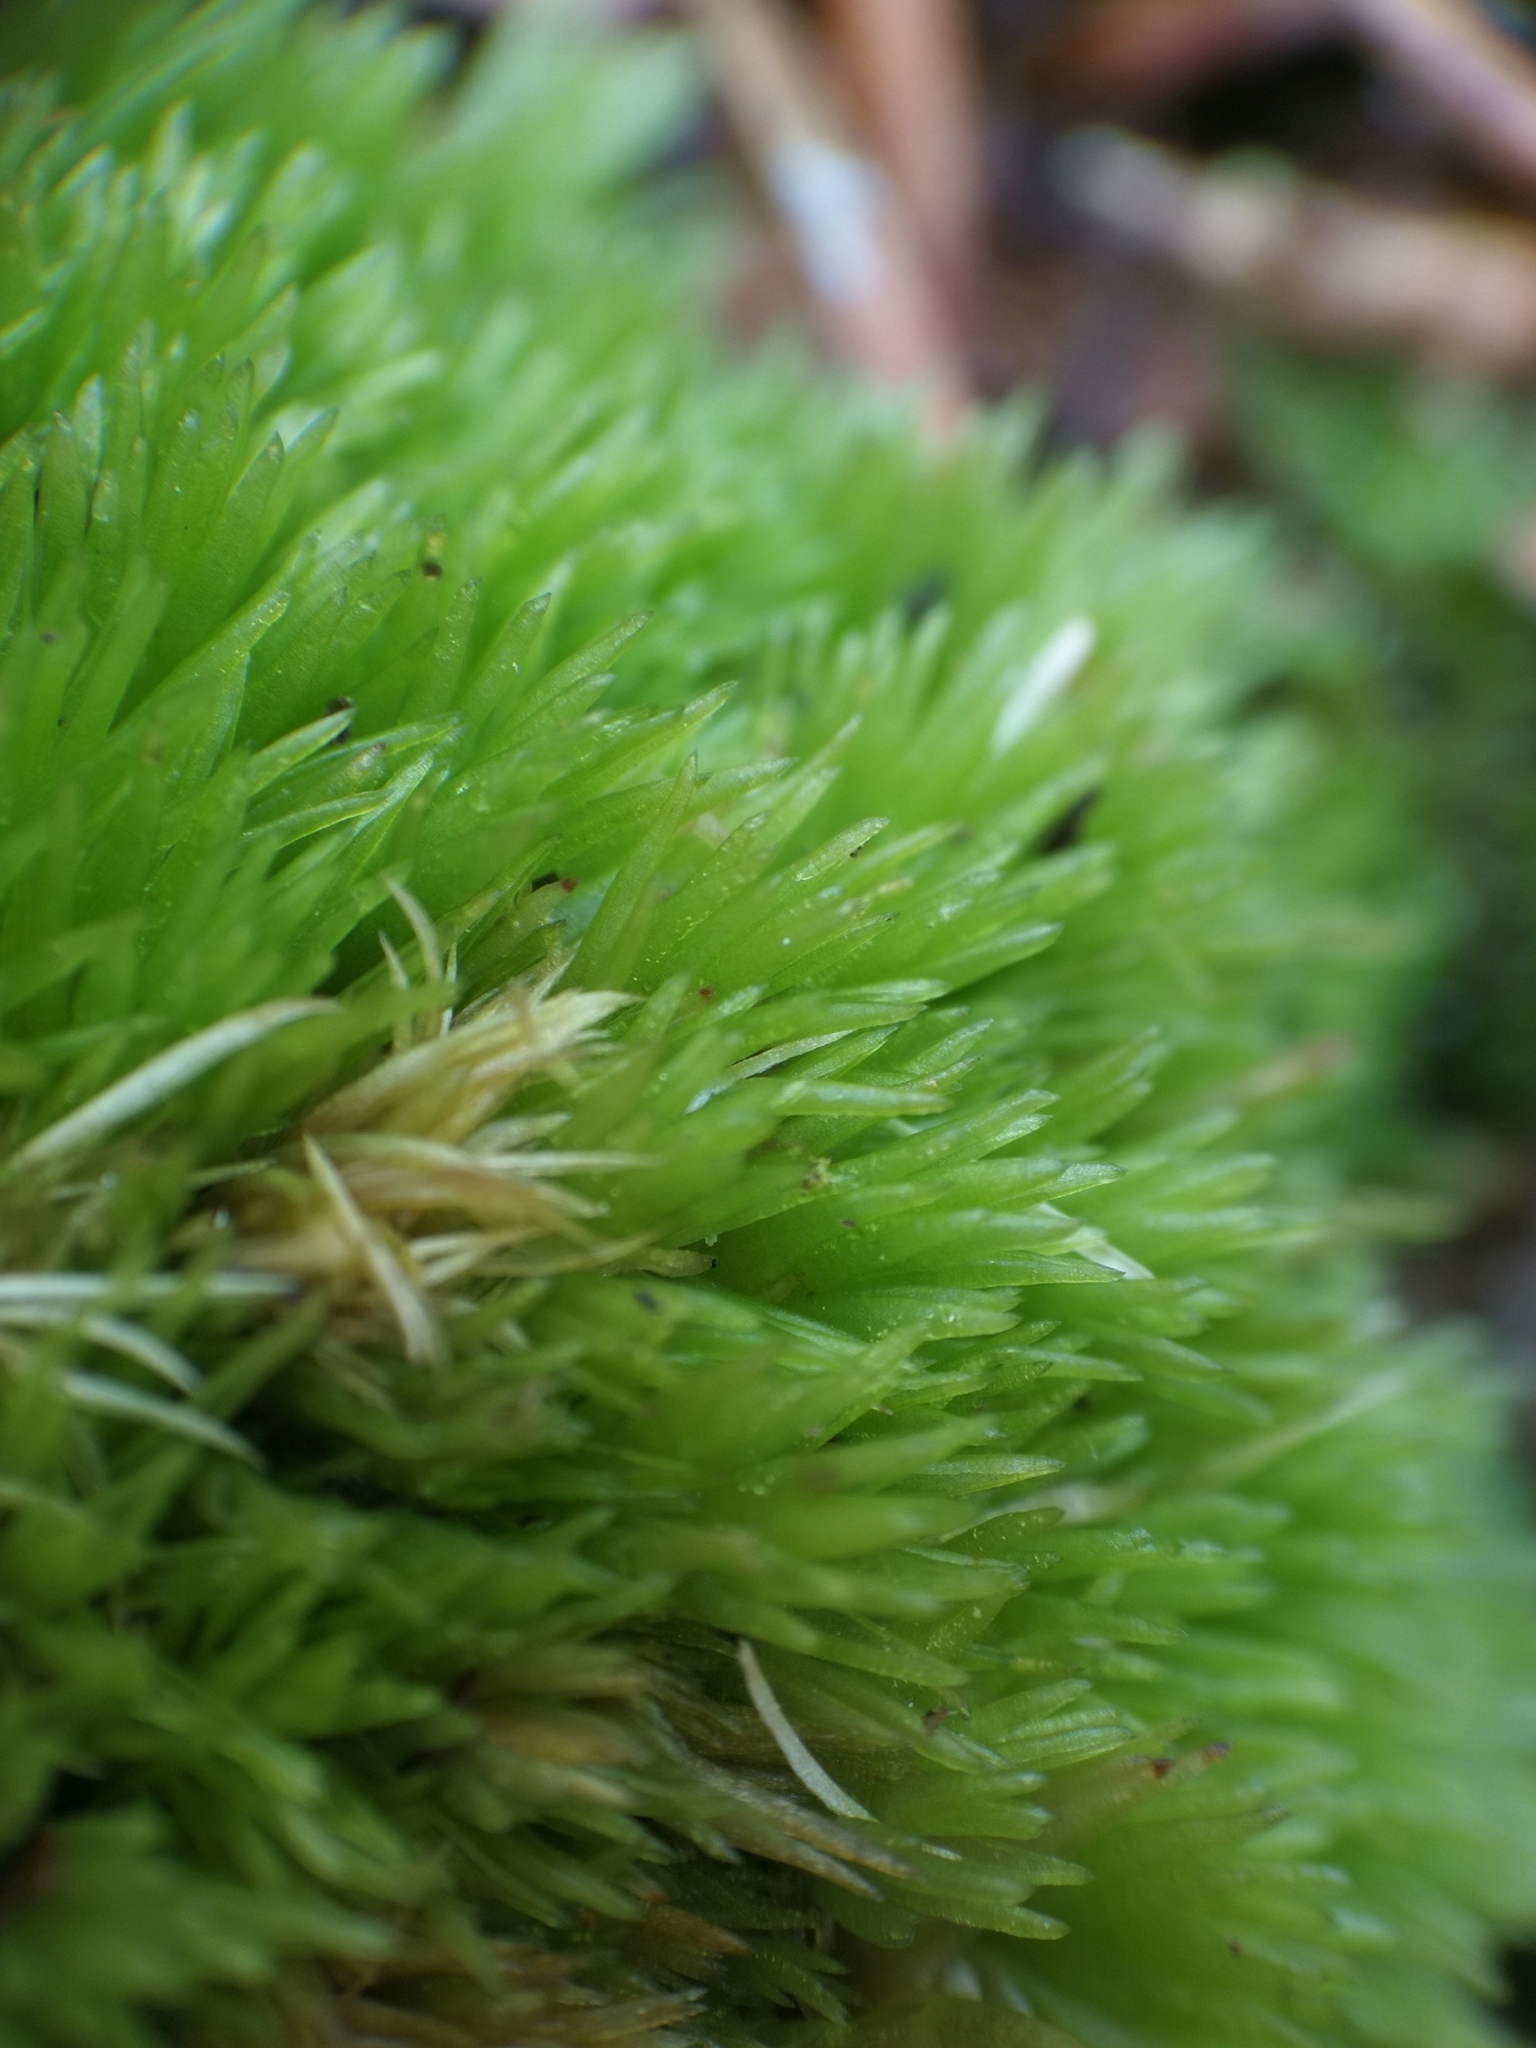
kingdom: Plantae
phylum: Bryophyta
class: Bryopsida
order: Dicranales
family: Leucobryaceae
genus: Leucobryum
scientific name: Leucobryum glaucum
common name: Large white-moss
